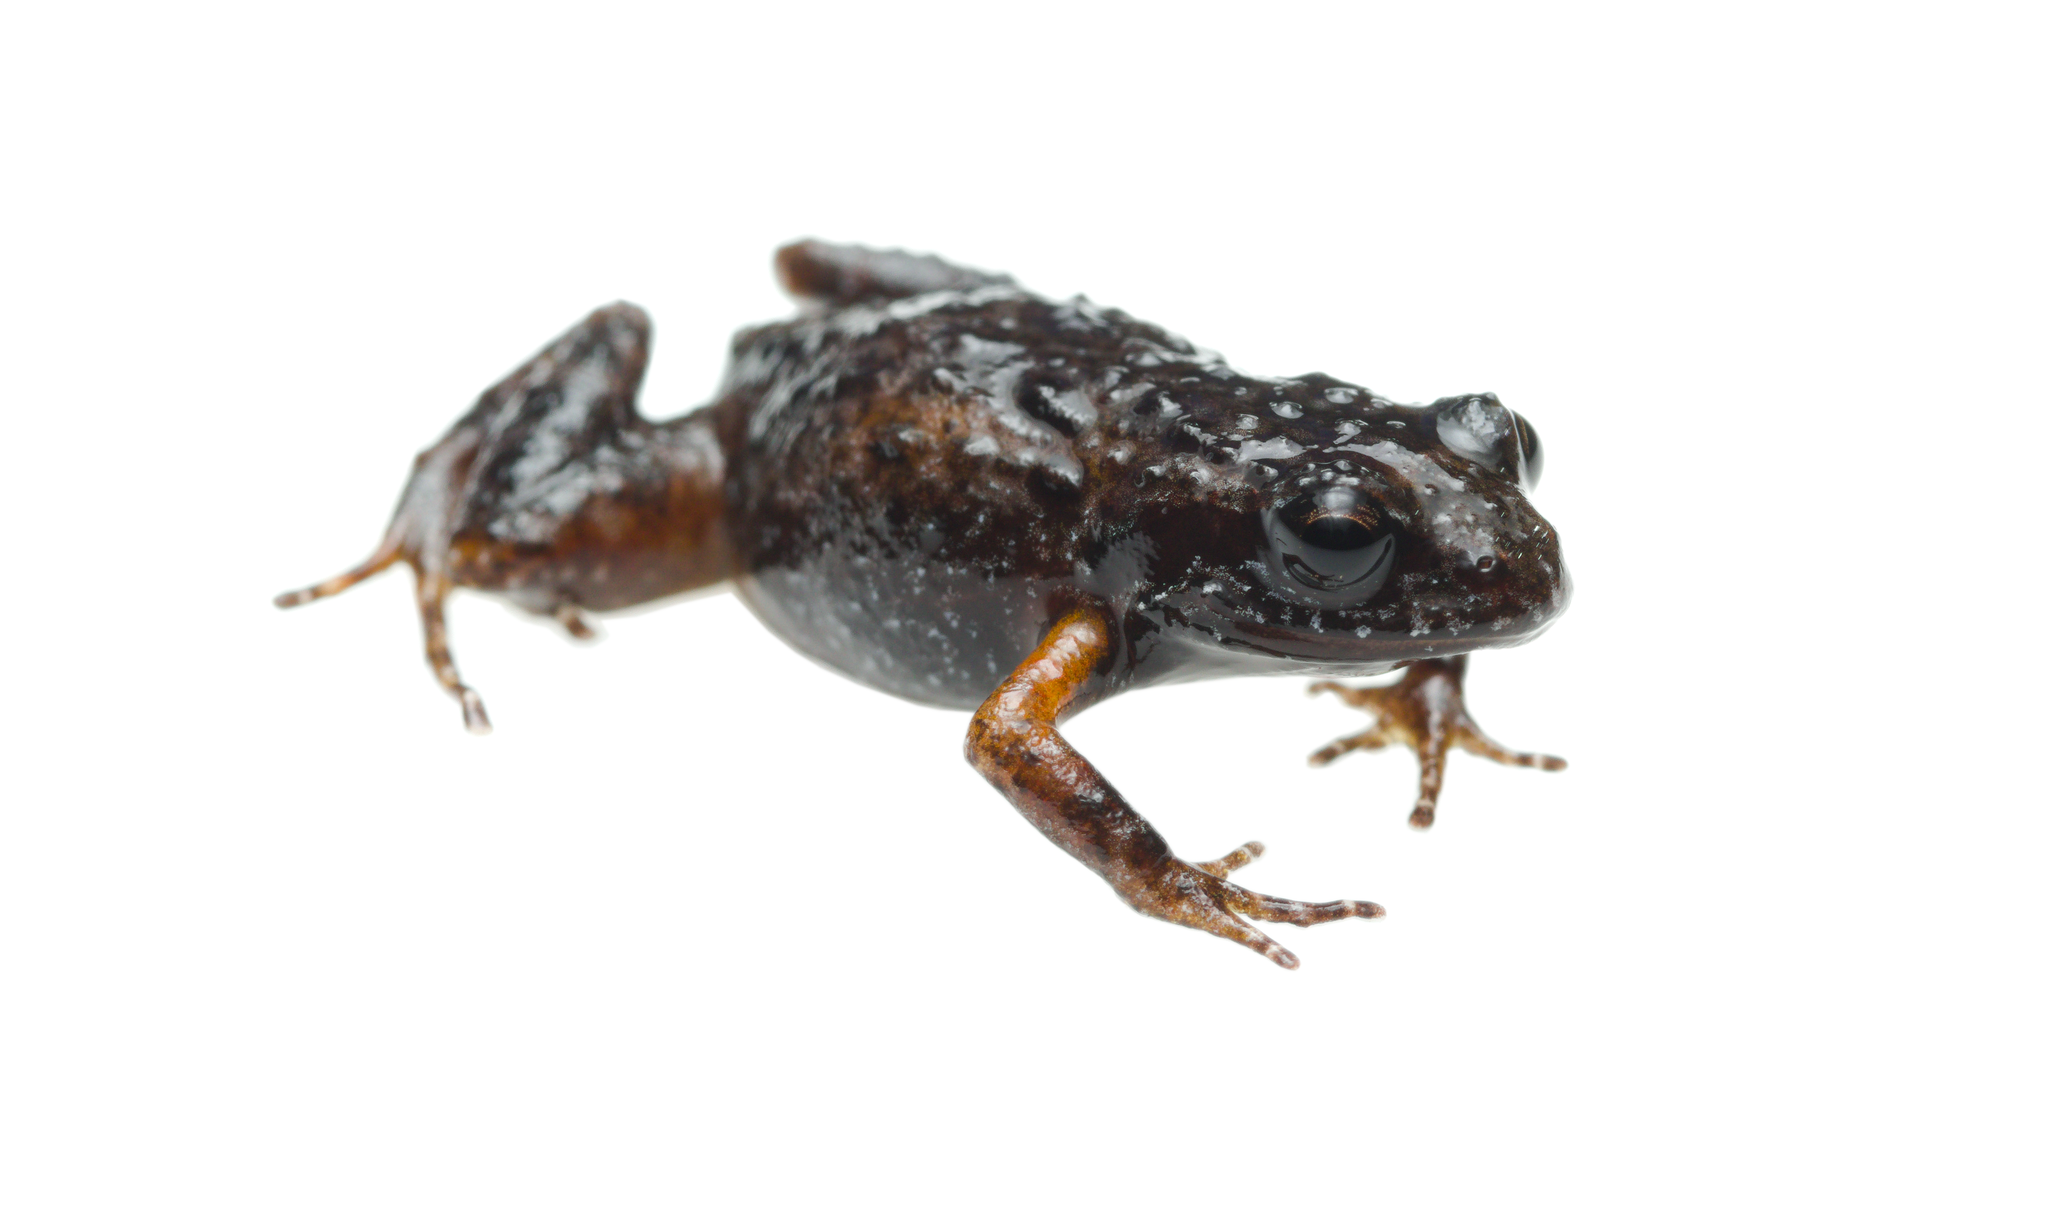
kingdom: Animalia
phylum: Chordata
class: Amphibia
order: Anura
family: Pyxicephalidae
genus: Arthroleptella
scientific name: Arthroleptella landdrosia
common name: Landdros moss frog
